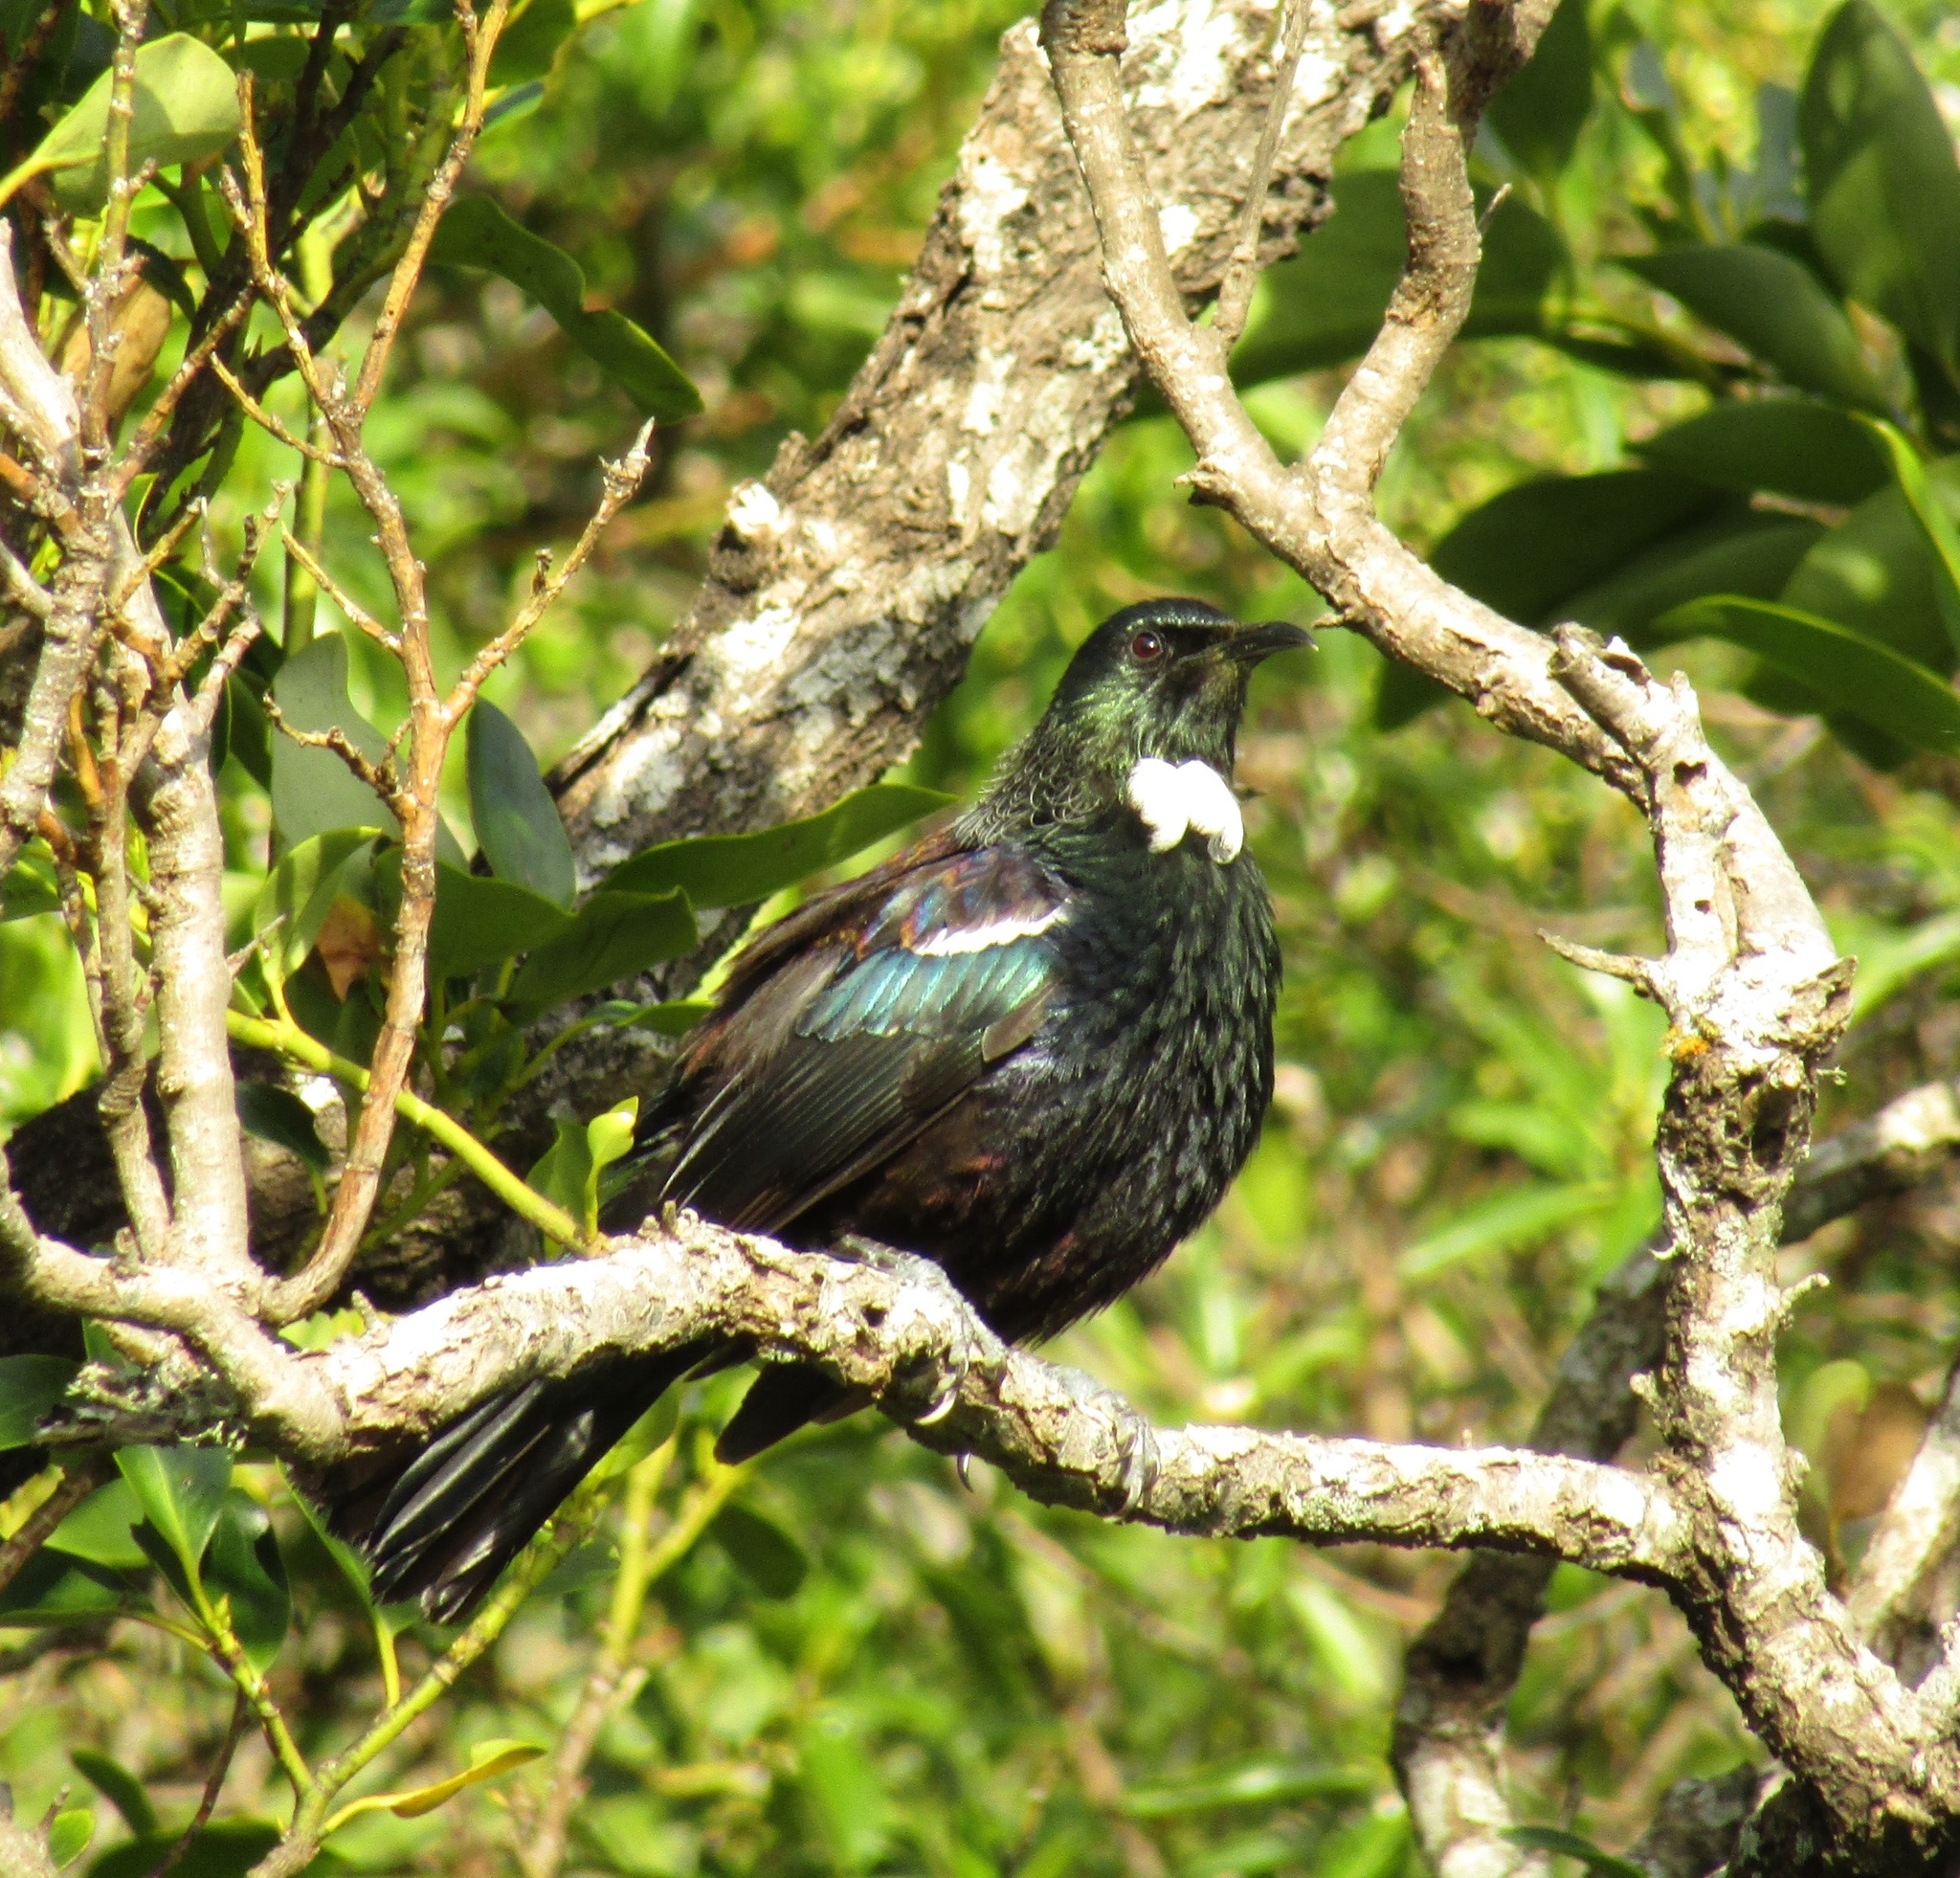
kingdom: Animalia
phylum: Chordata
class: Aves
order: Passeriformes
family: Meliphagidae
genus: Prosthemadera
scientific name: Prosthemadera novaeseelandiae
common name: Tui
